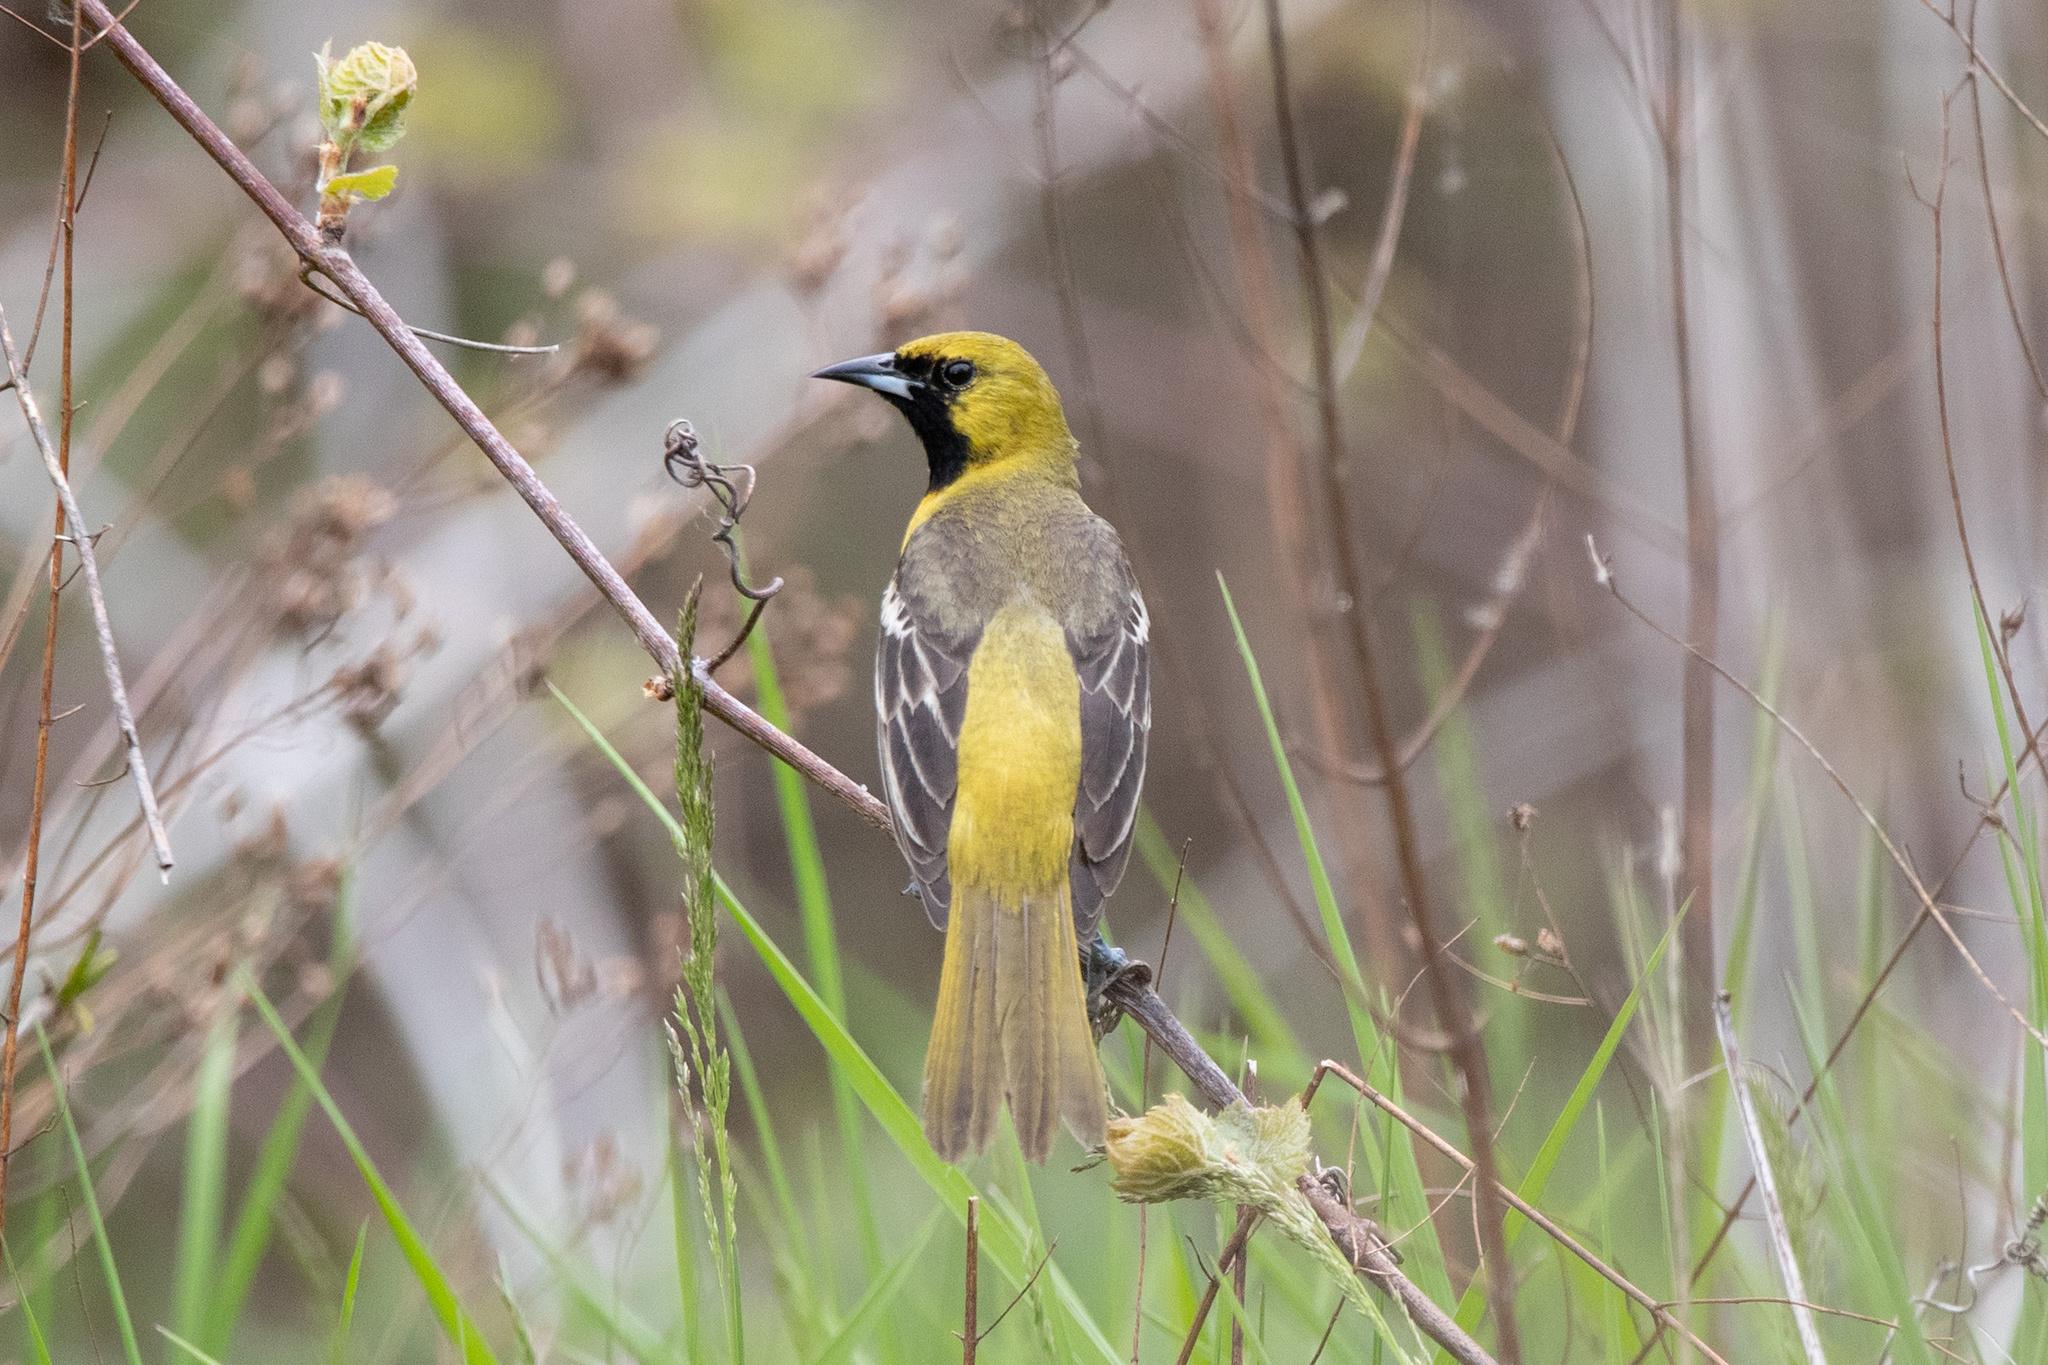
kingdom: Animalia
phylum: Chordata
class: Aves
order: Passeriformes
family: Icteridae
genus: Icterus
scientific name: Icterus spurius
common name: Orchard oriole
